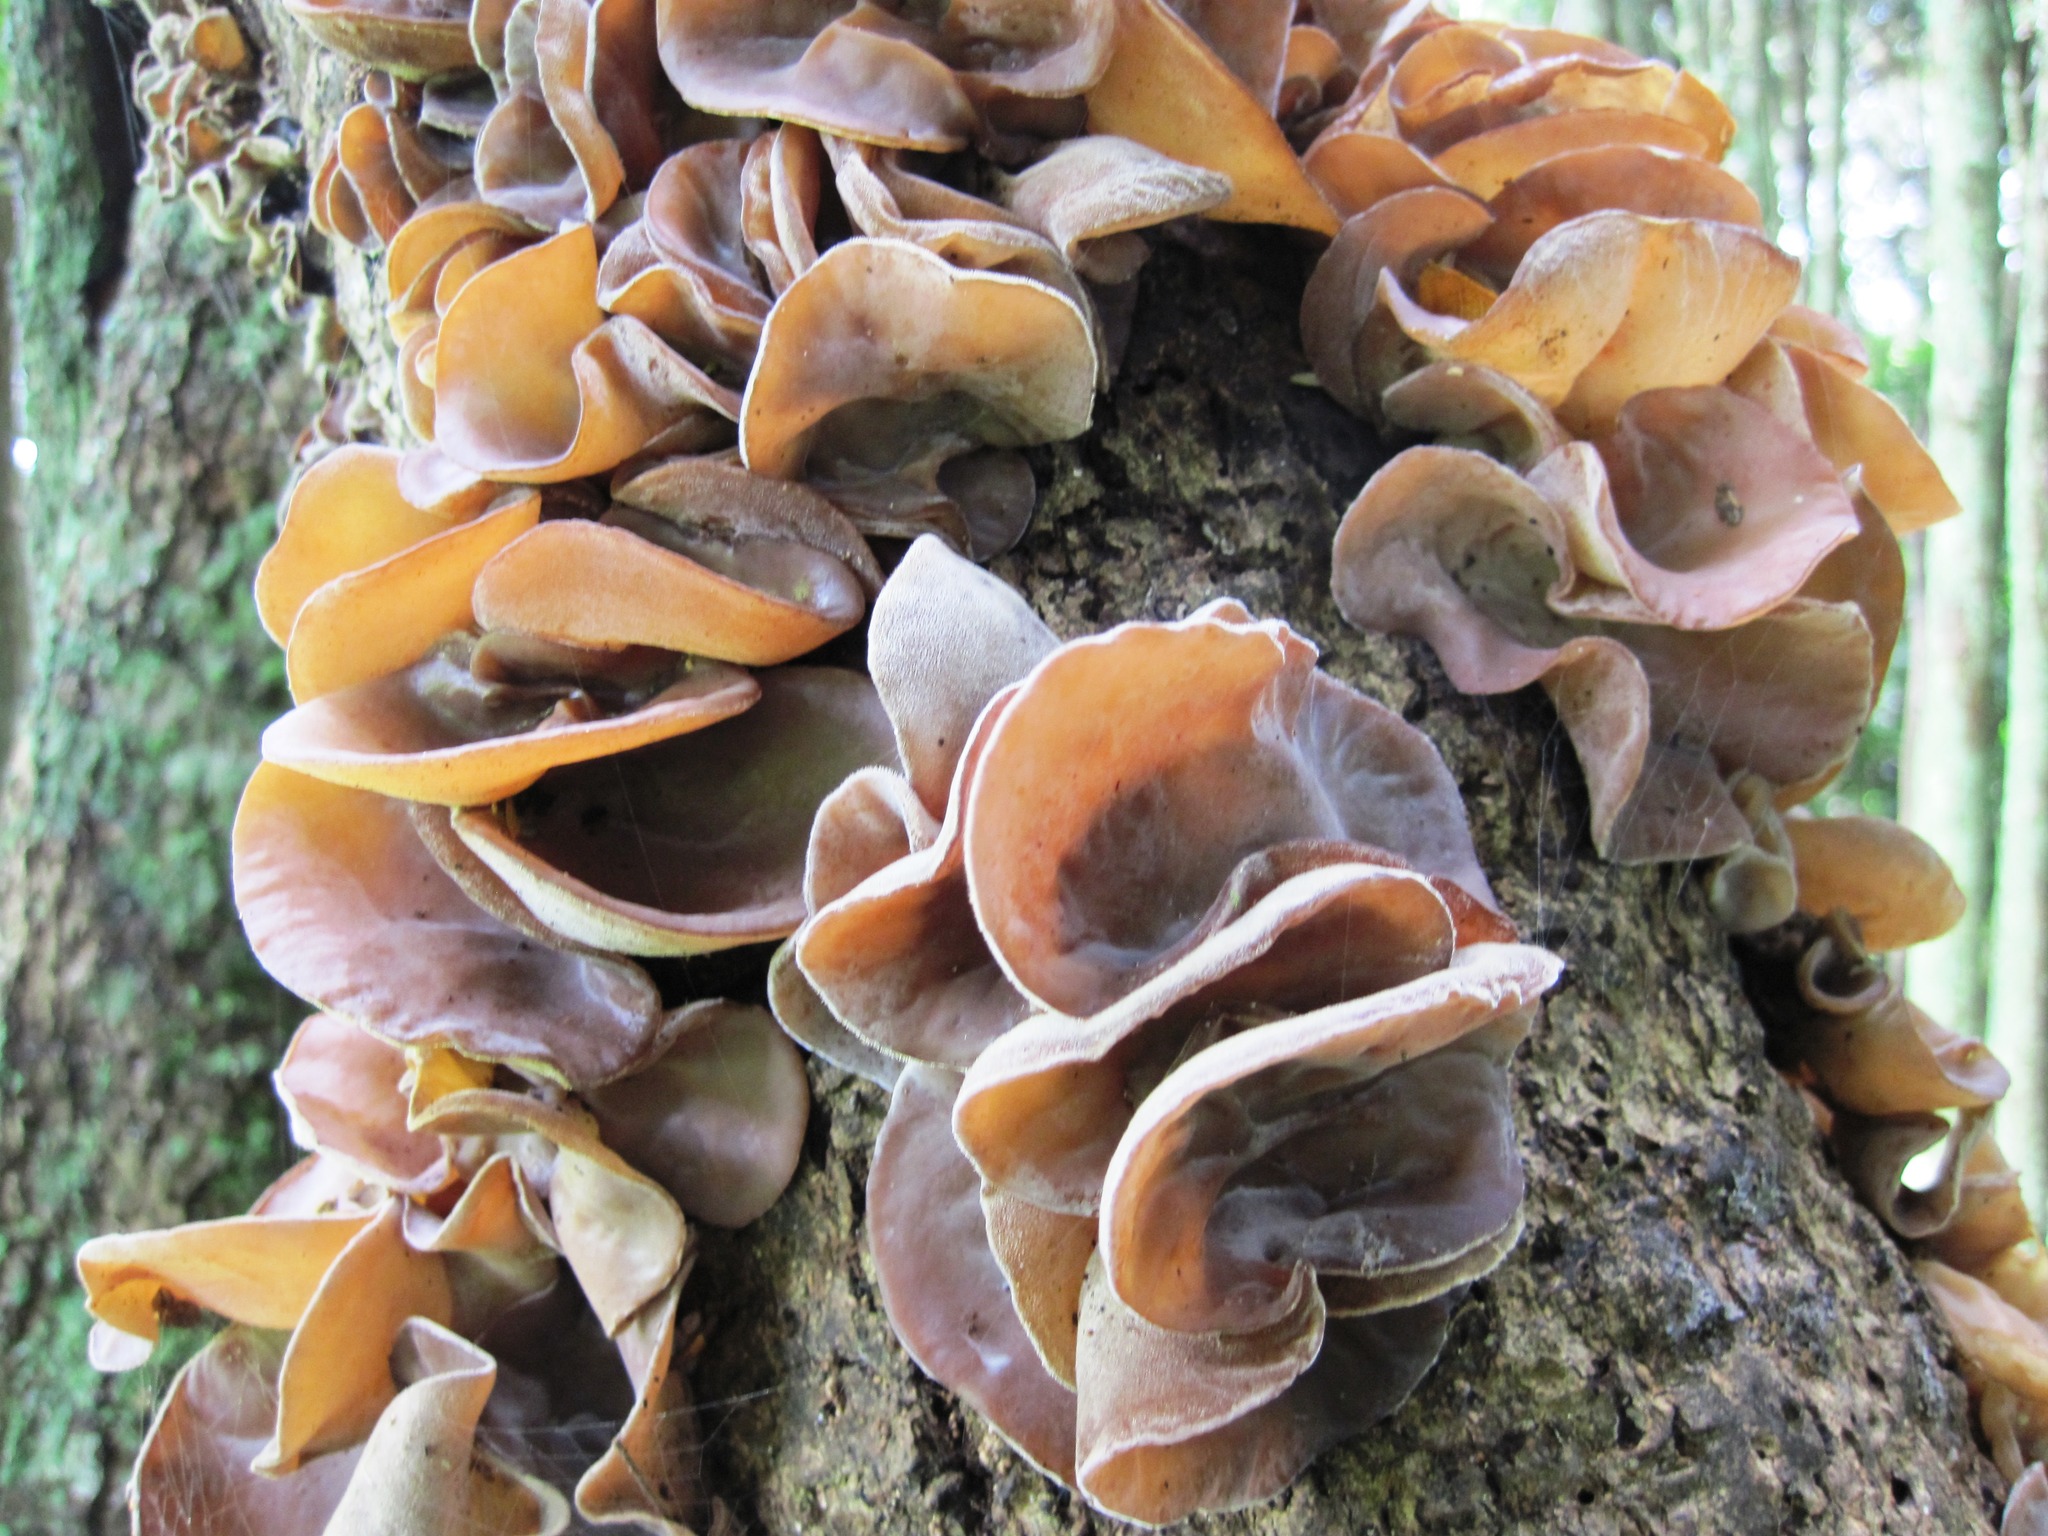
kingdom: Fungi
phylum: Basidiomycota
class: Agaricomycetes
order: Auriculariales
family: Auriculariaceae
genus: Auricularia
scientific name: Auricularia cornea
